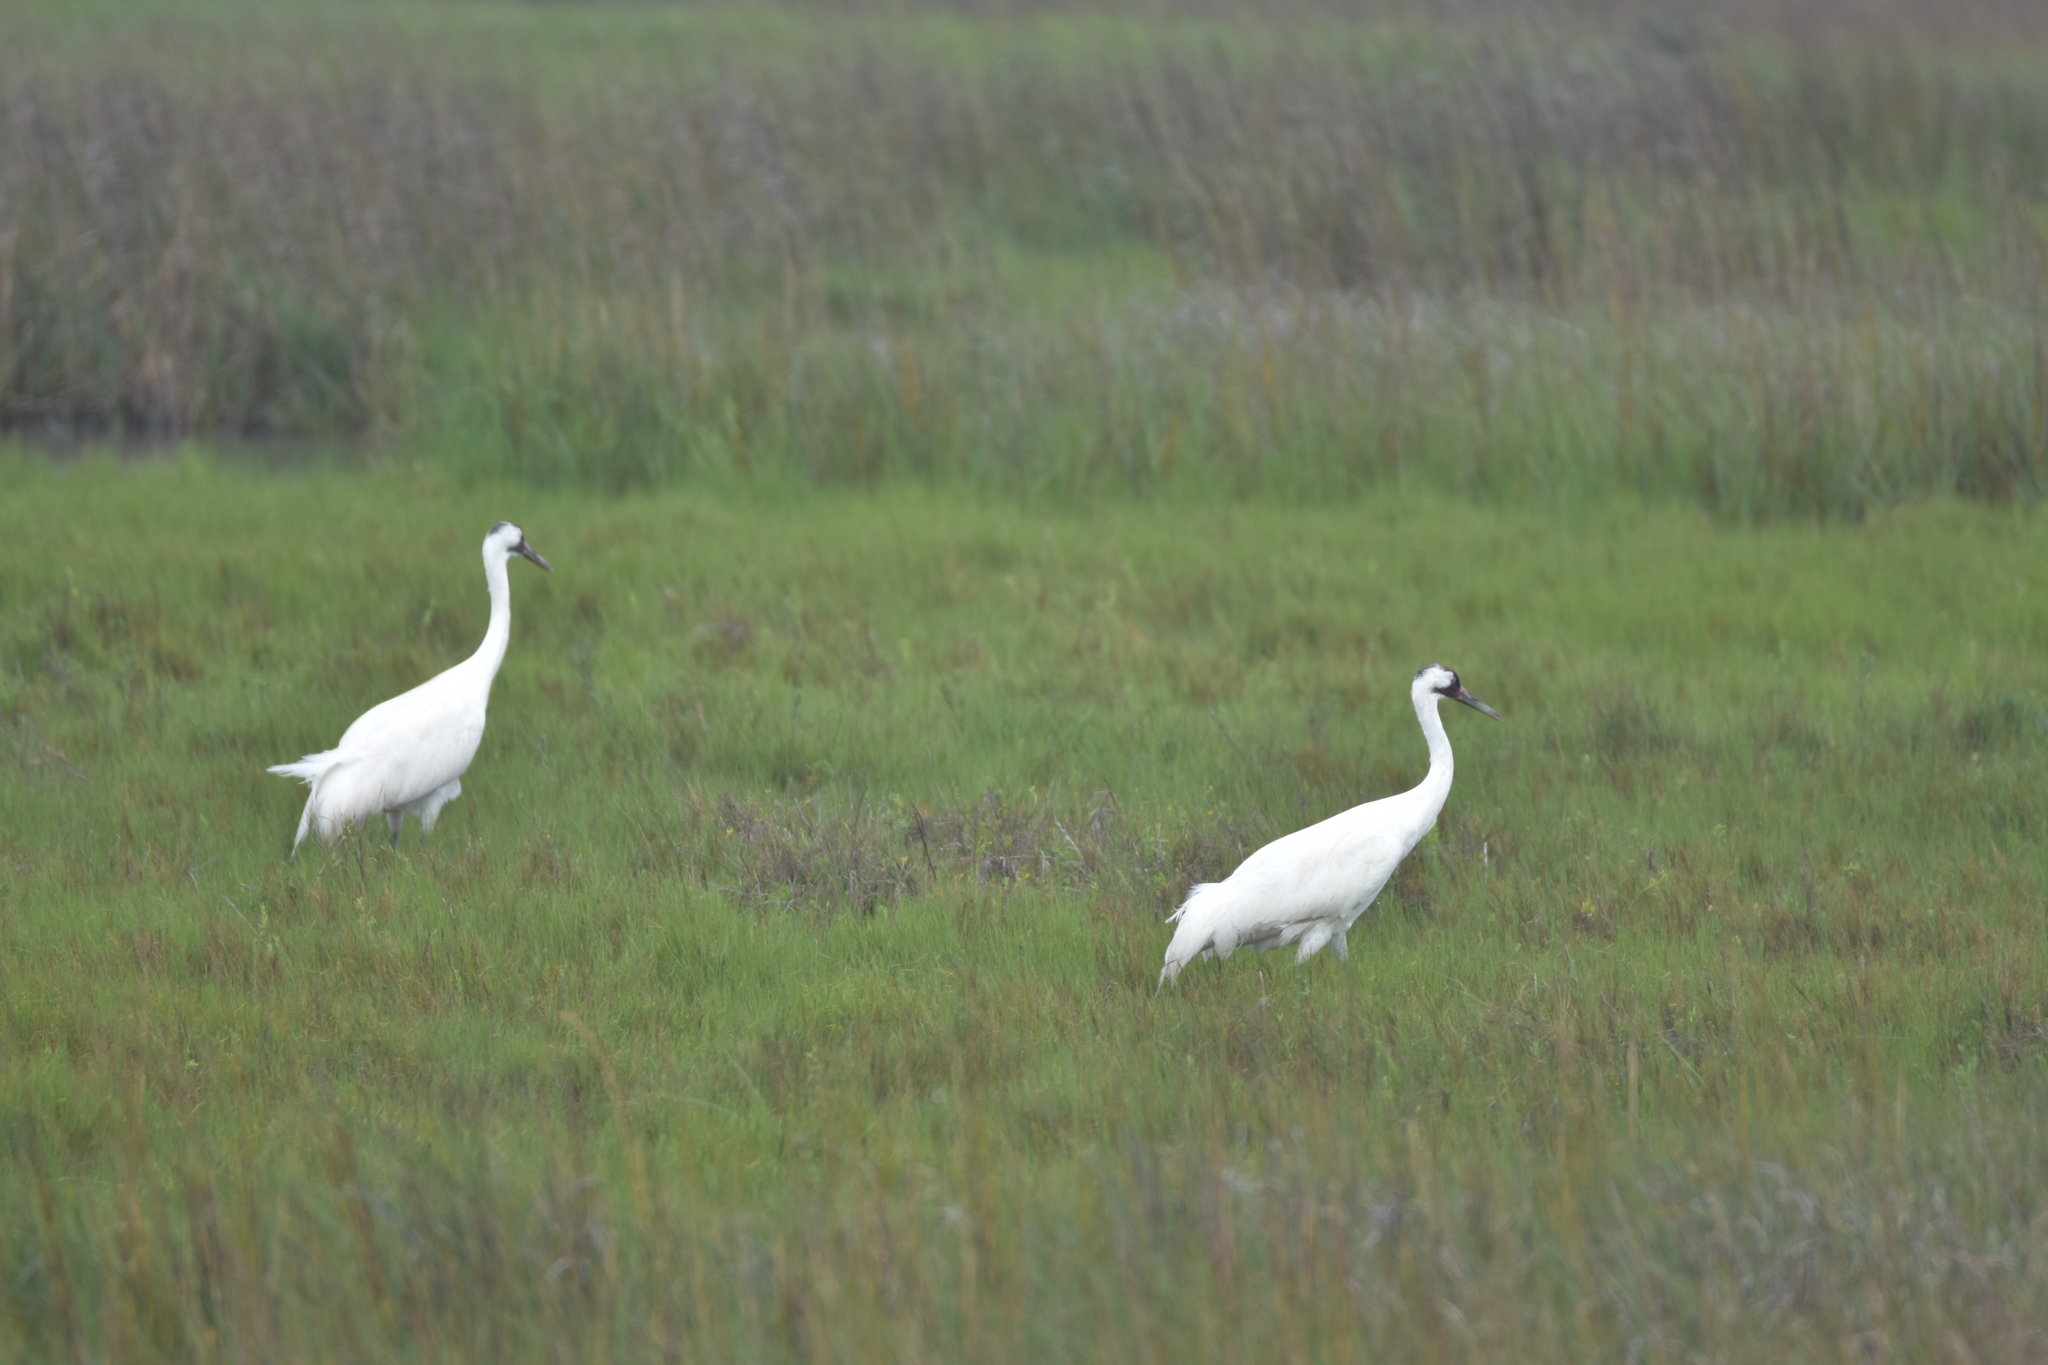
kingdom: Animalia
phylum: Chordata
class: Aves
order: Gruiformes
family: Gruidae
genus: Grus
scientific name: Grus americana
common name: Whooping crane
